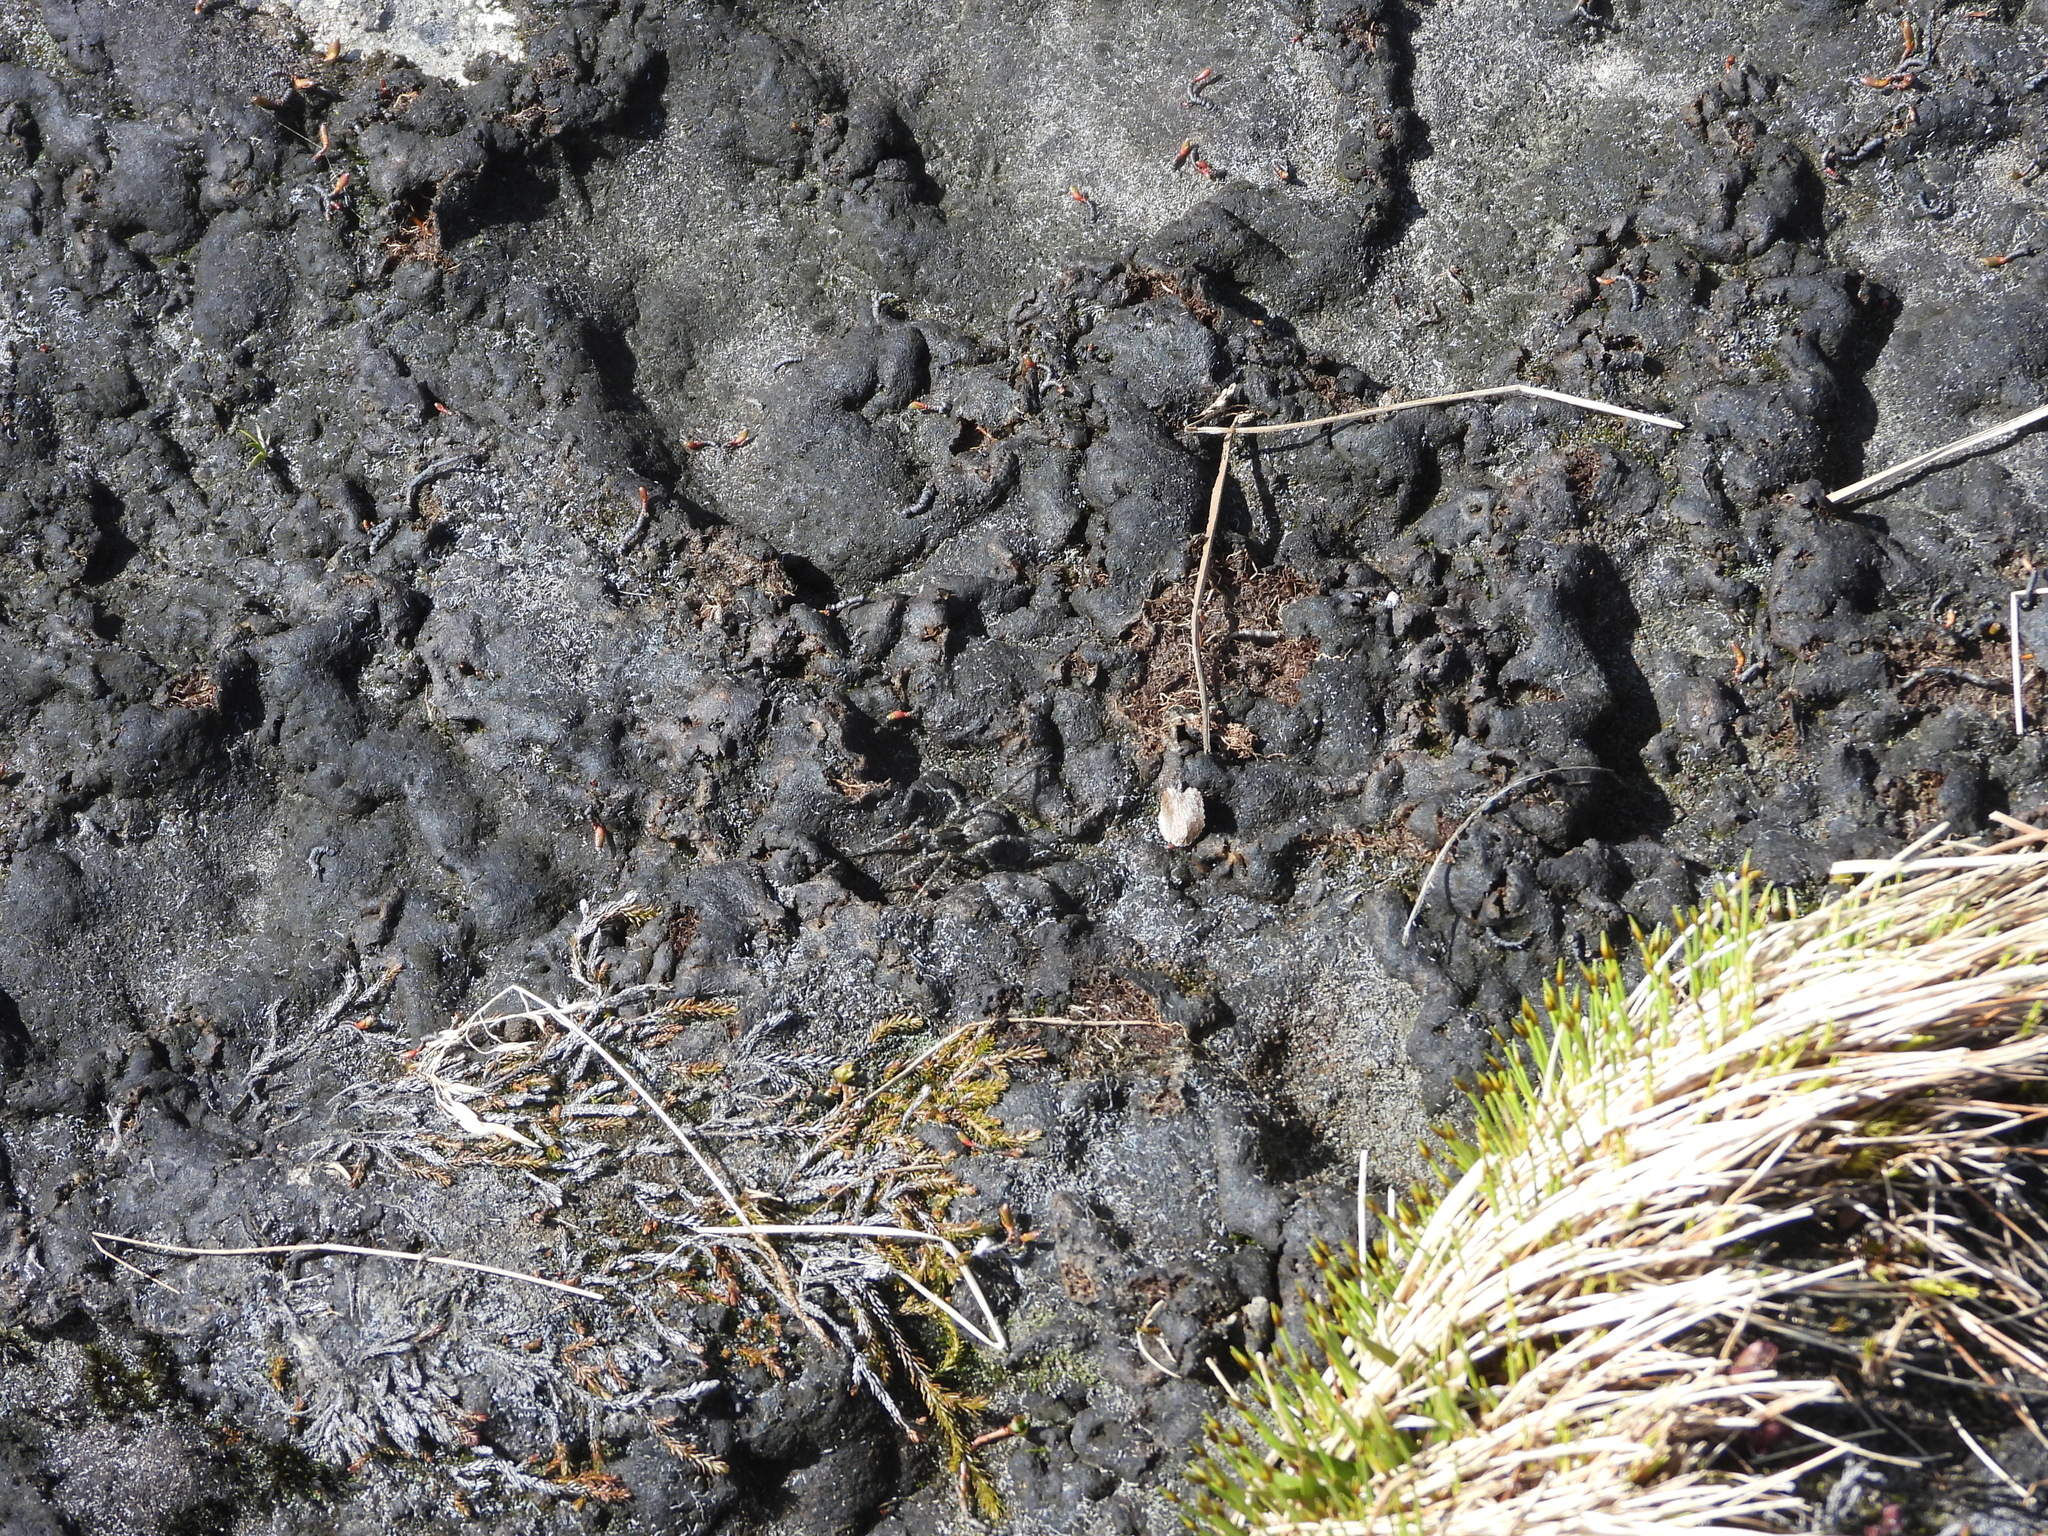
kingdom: Animalia
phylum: Arthropoda
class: Arachnida
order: Araneae
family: Lycosidae
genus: Pardosa
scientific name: Pardosa groenlandica
